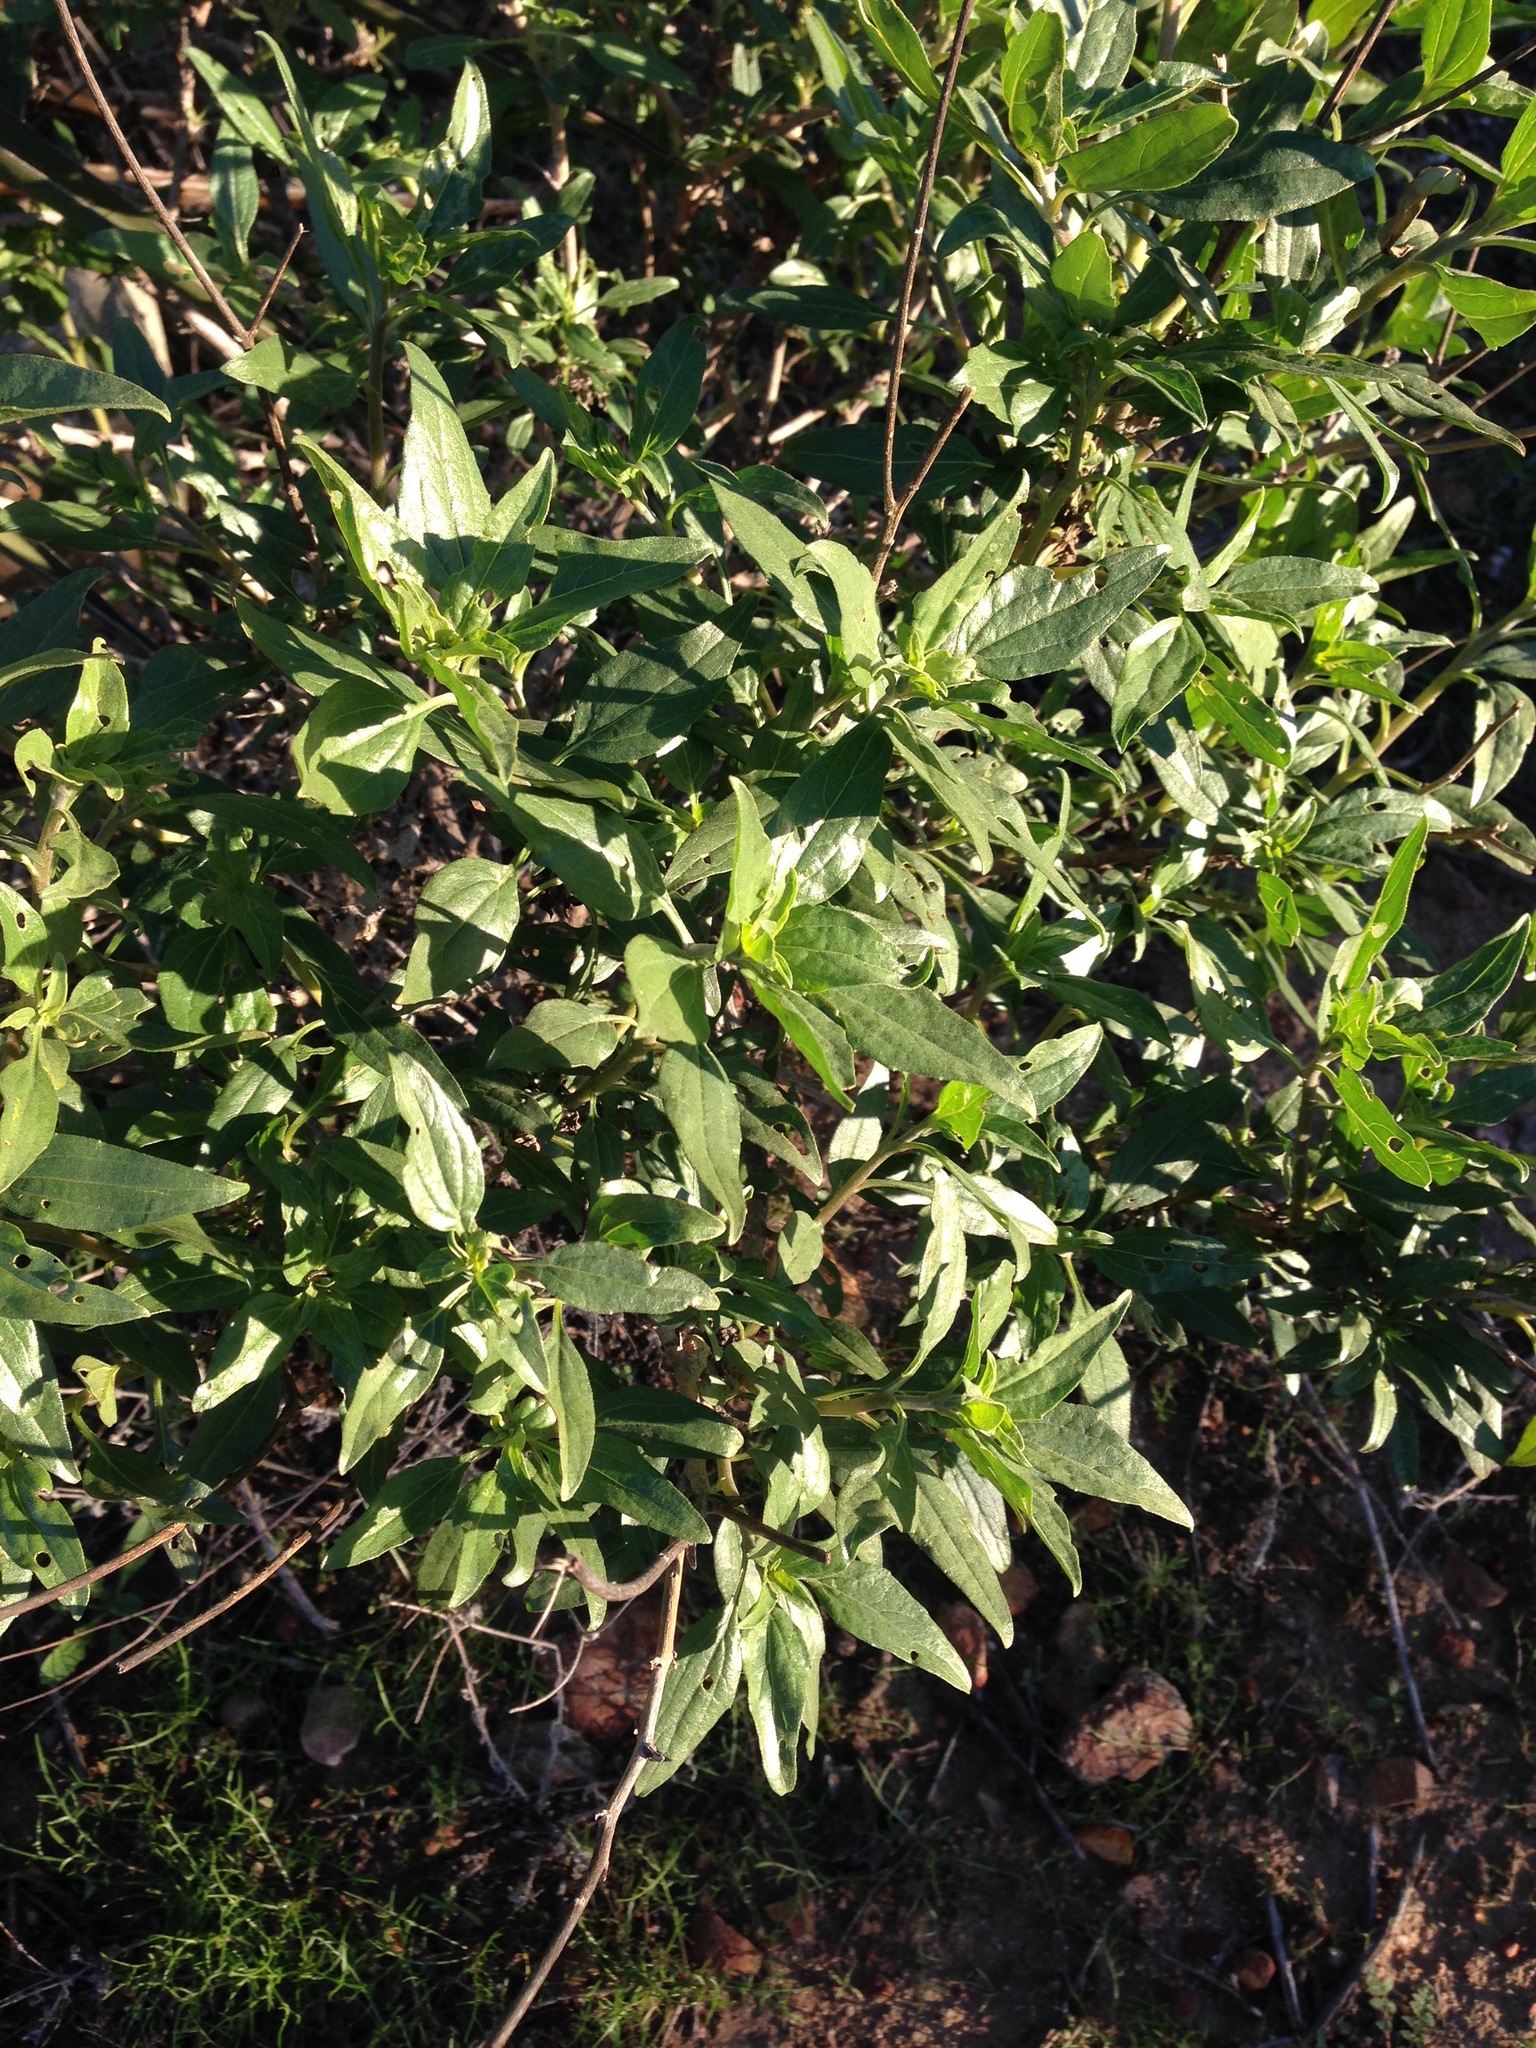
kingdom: Plantae
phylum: Tracheophyta
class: Magnoliopsida
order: Asterales
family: Asteraceae
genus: Encelia
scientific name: Encelia californica
